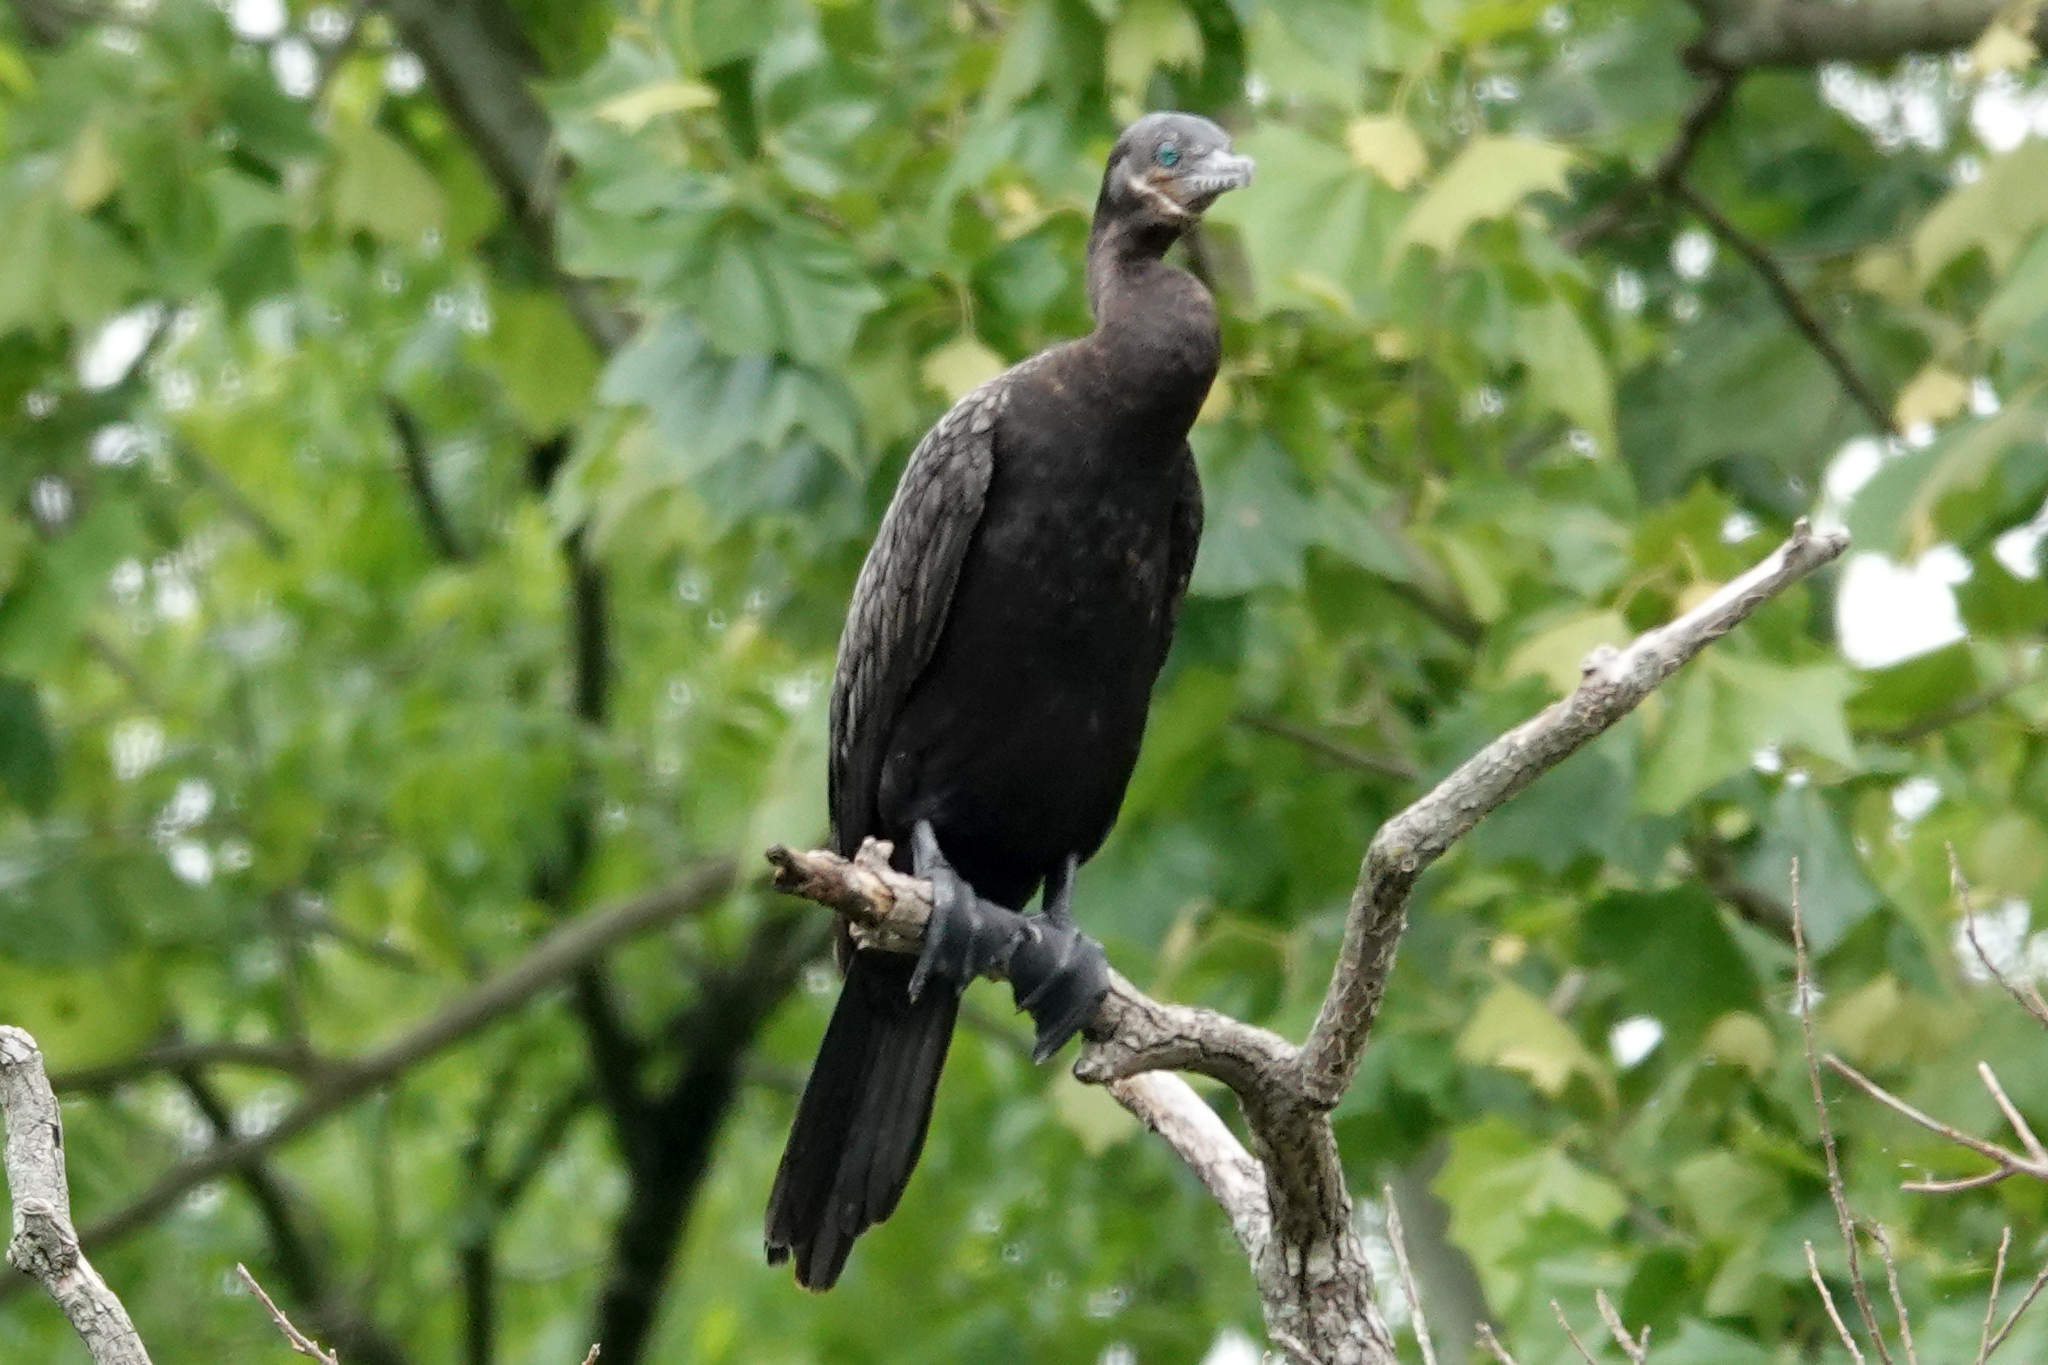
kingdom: Animalia
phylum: Chordata
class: Aves
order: Suliformes
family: Phalacrocoracidae
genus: Phalacrocorax
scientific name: Phalacrocorax brasilianus
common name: Neotropic cormorant
